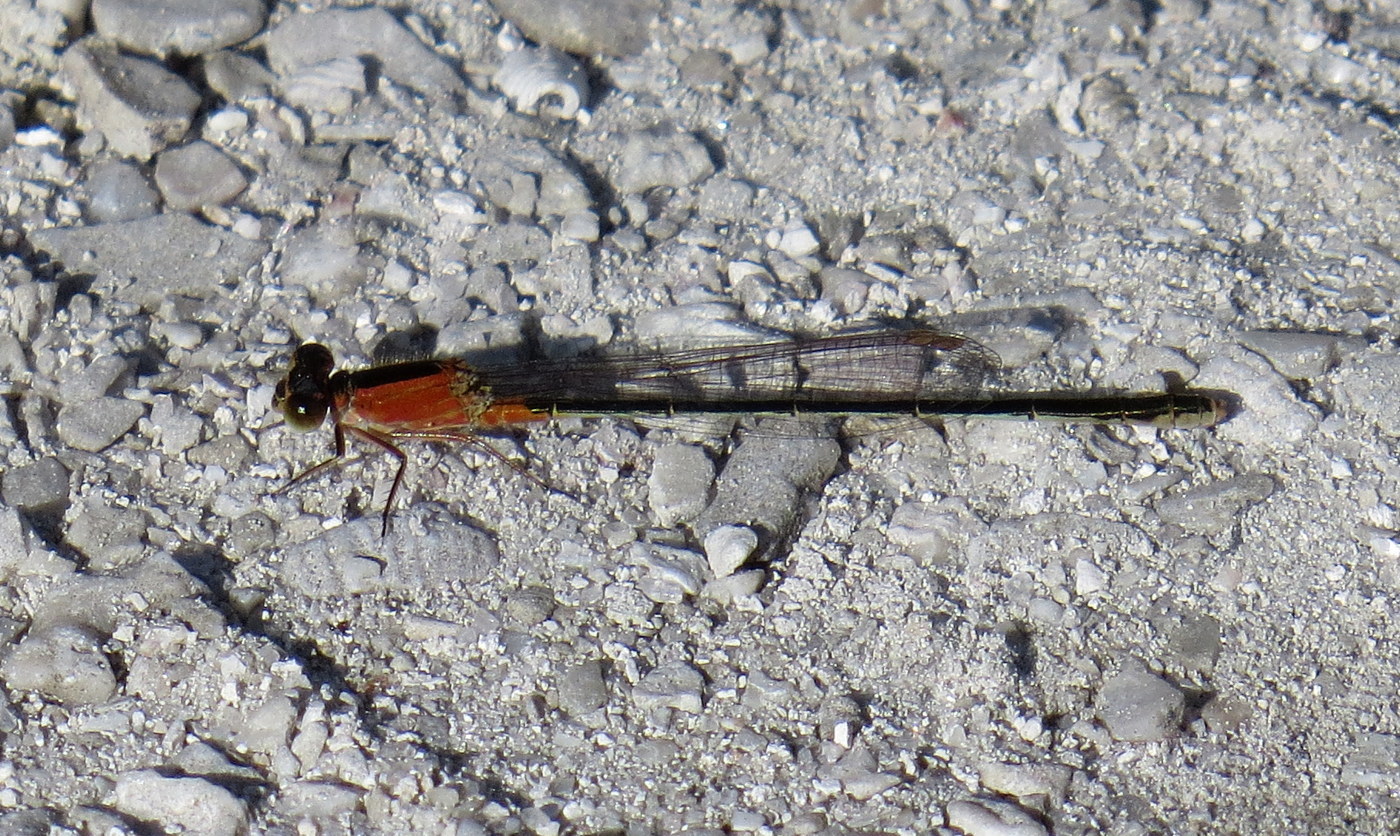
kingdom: Animalia
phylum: Arthropoda
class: Insecta
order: Odonata
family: Coenagrionidae
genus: Ischnura
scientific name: Ischnura ramburii
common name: Rambur's forktail
